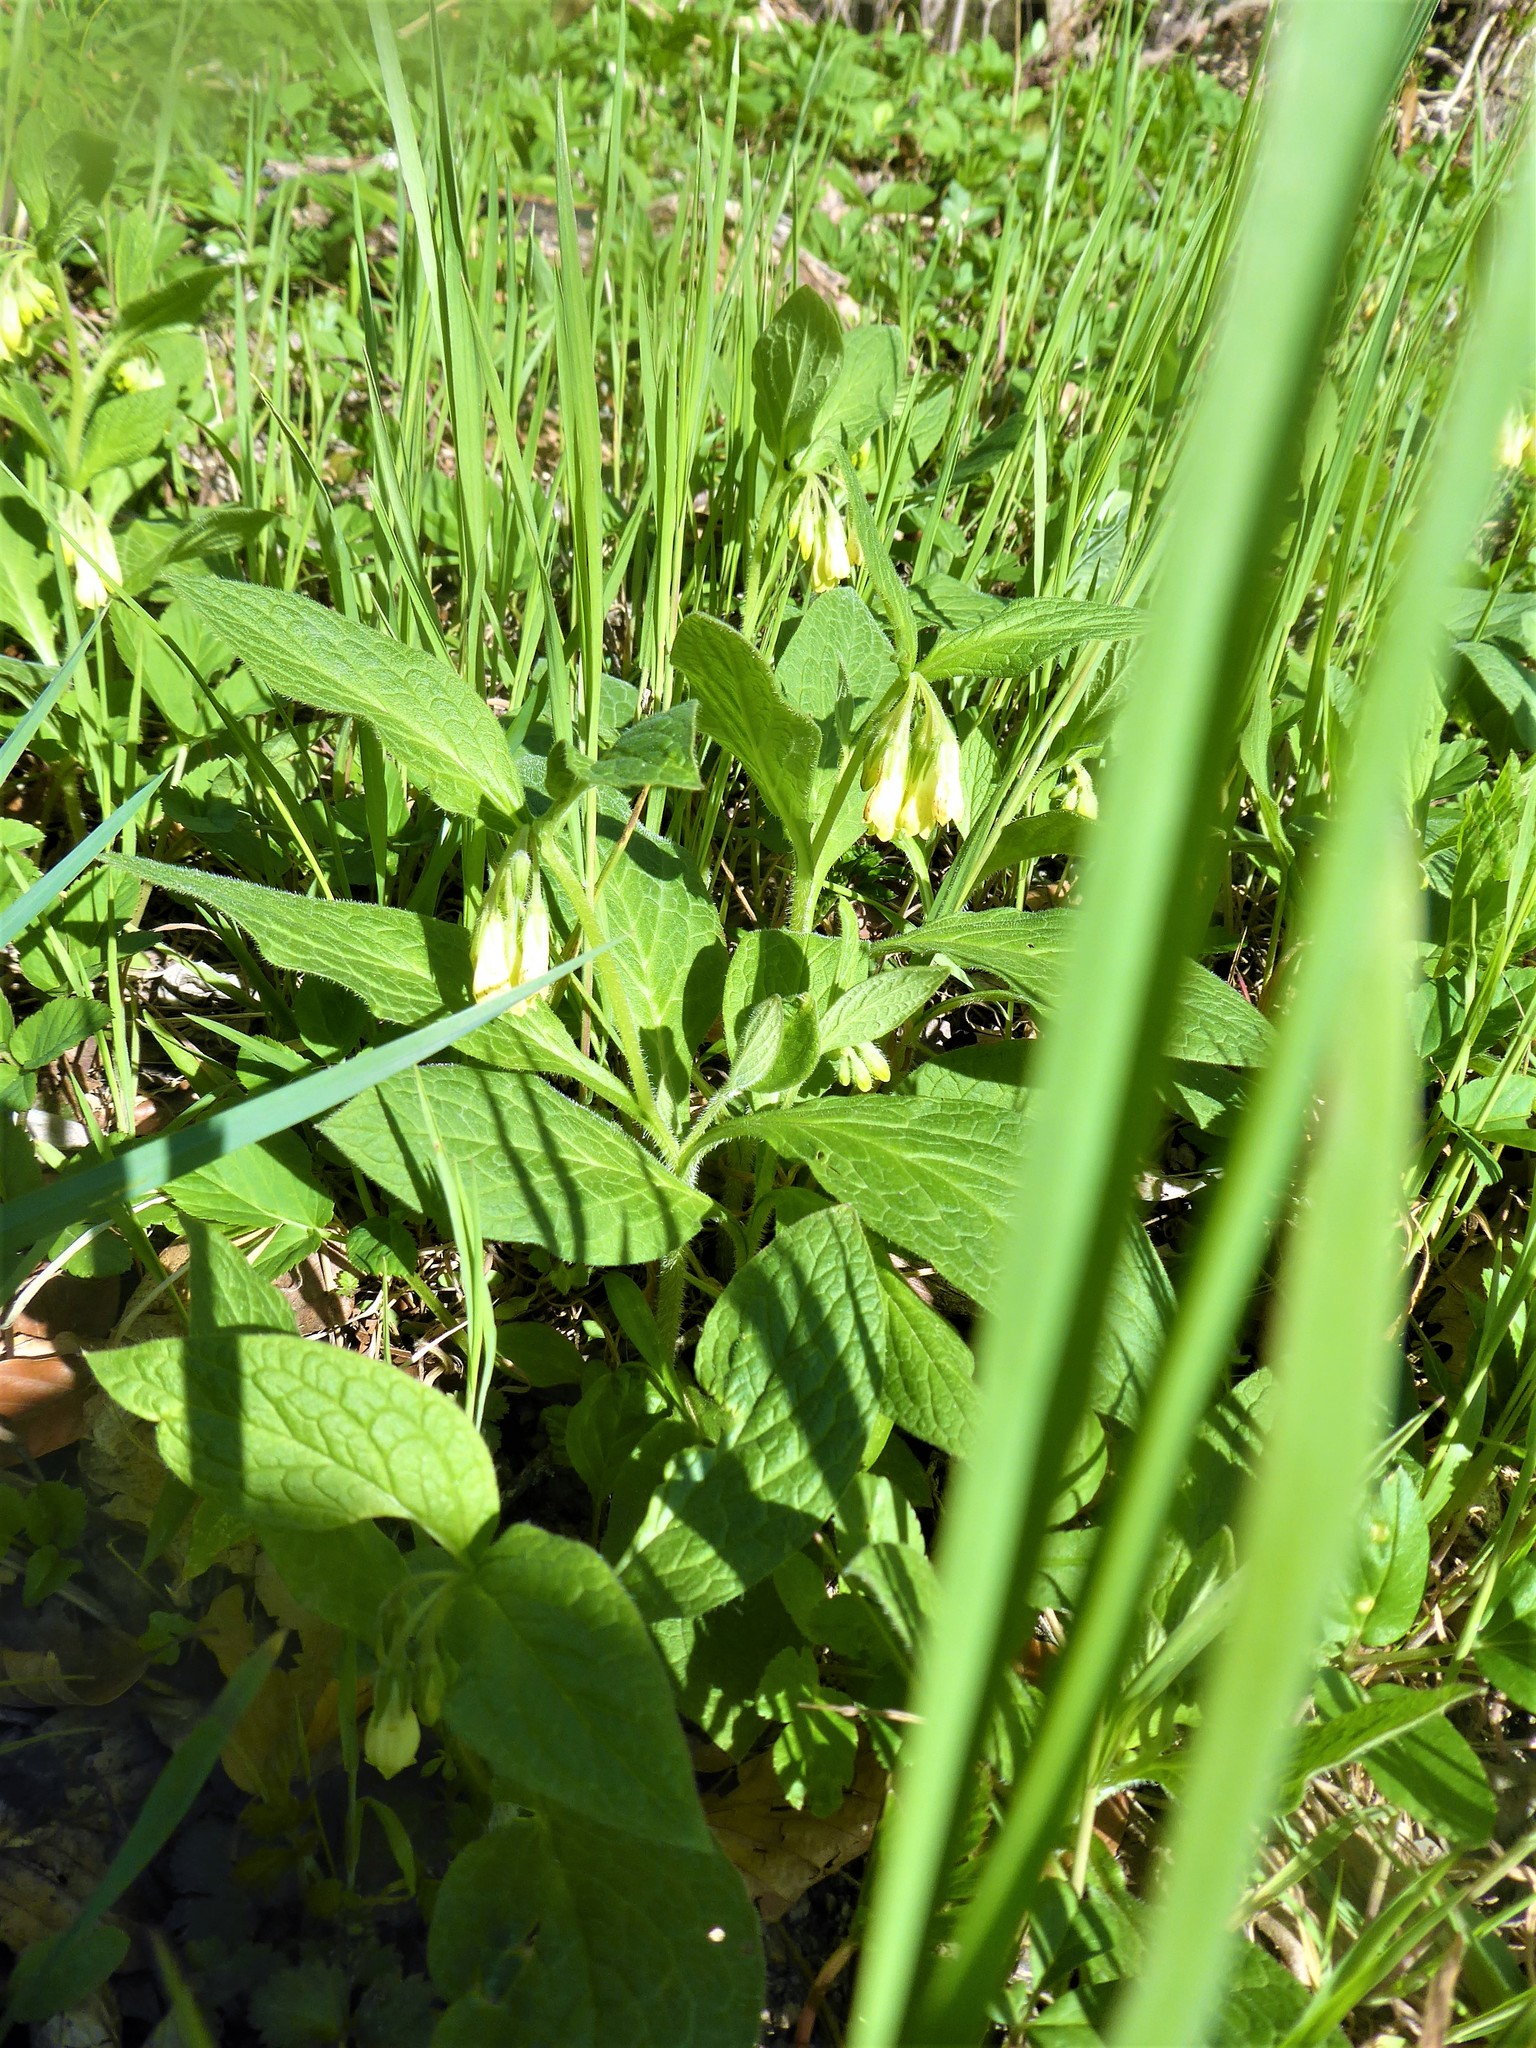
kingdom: Plantae
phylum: Tracheophyta
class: Magnoliopsida
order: Boraginales
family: Boraginaceae
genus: Symphytum
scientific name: Symphytum tuberosum
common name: Tuberous comfrey
